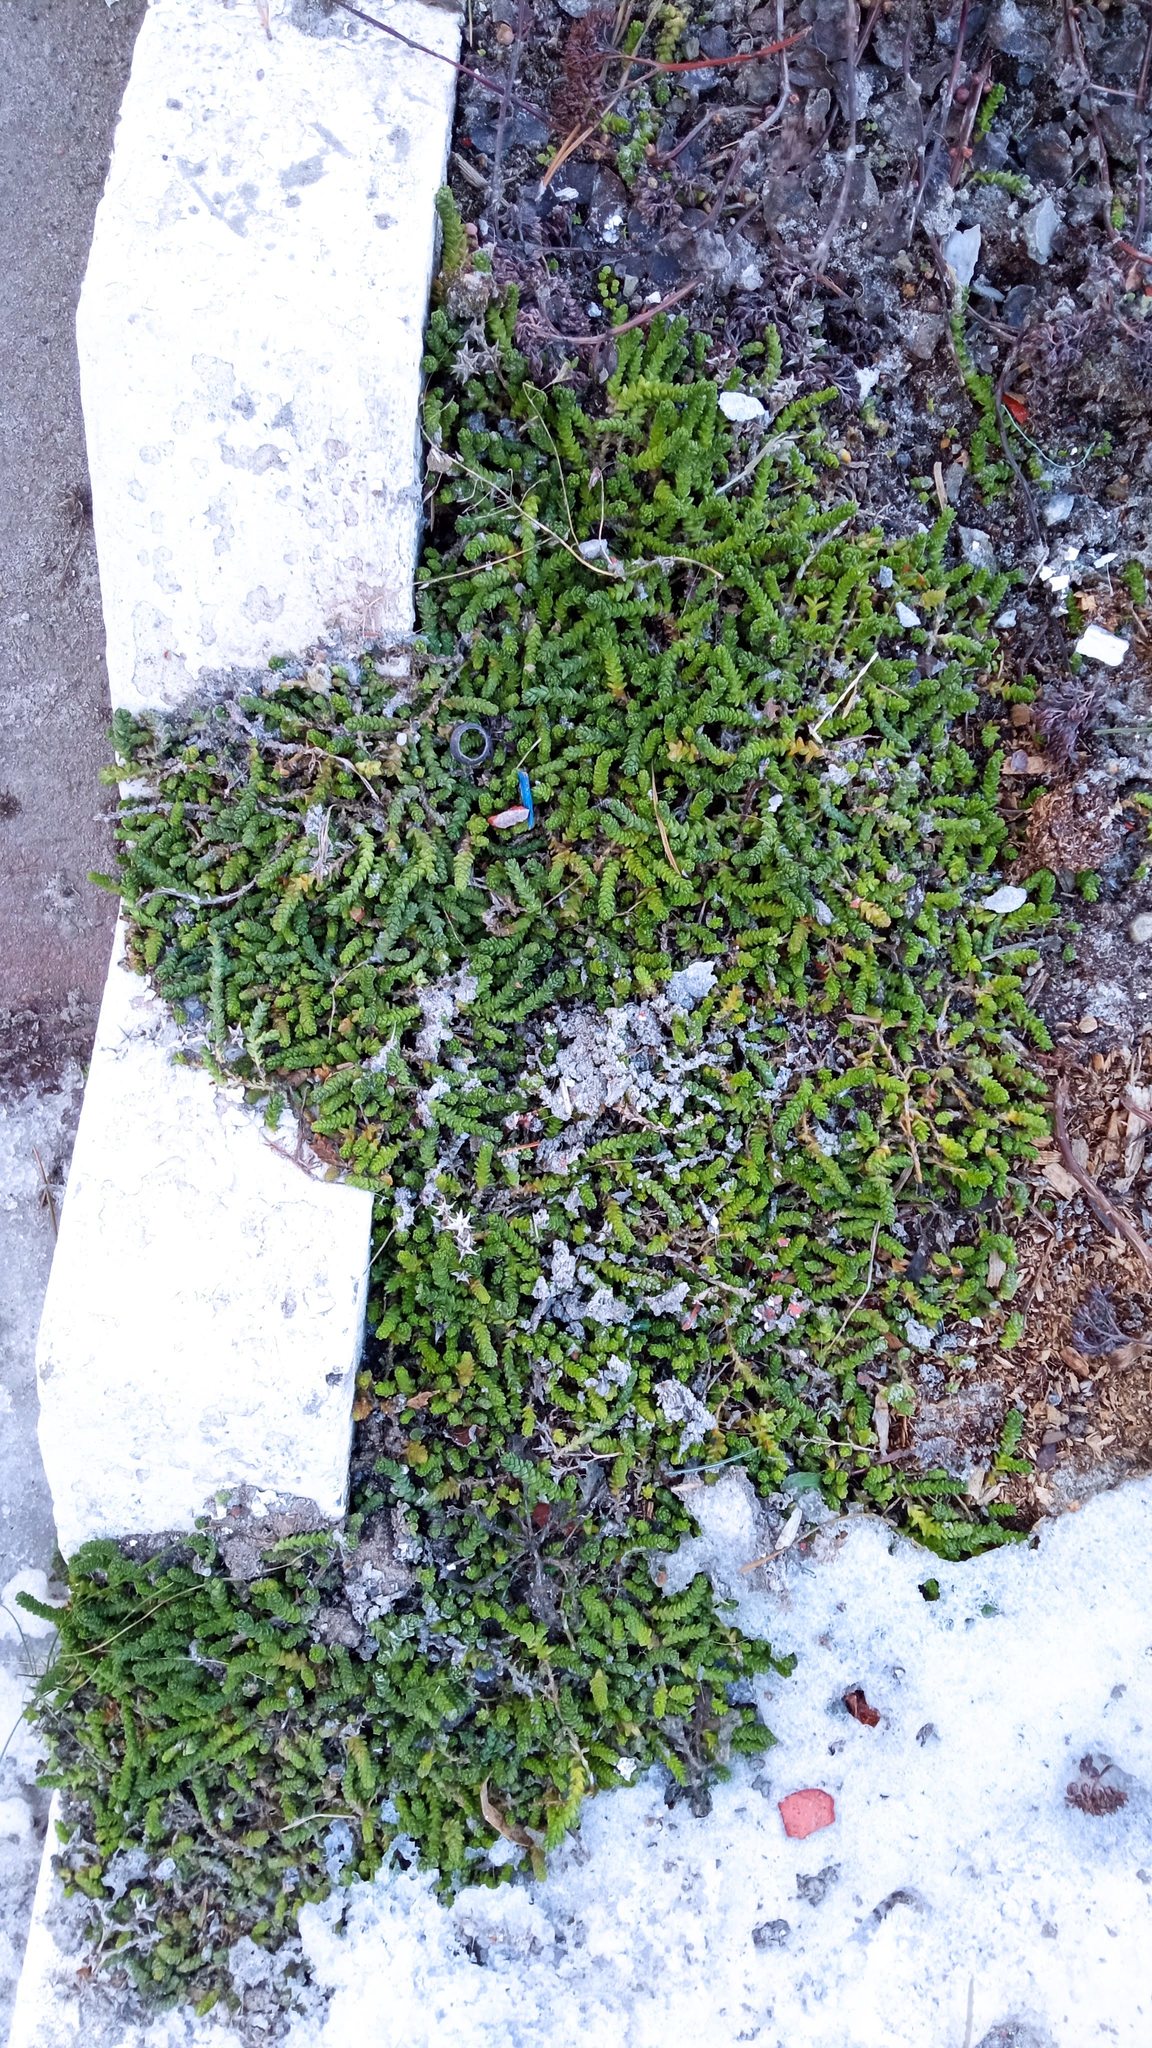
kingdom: Plantae
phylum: Tracheophyta
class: Magnoliopsida
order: Saxifragales
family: Crassulaceae
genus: Sedum
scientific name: Sedum acre
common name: Biting stonecrop
